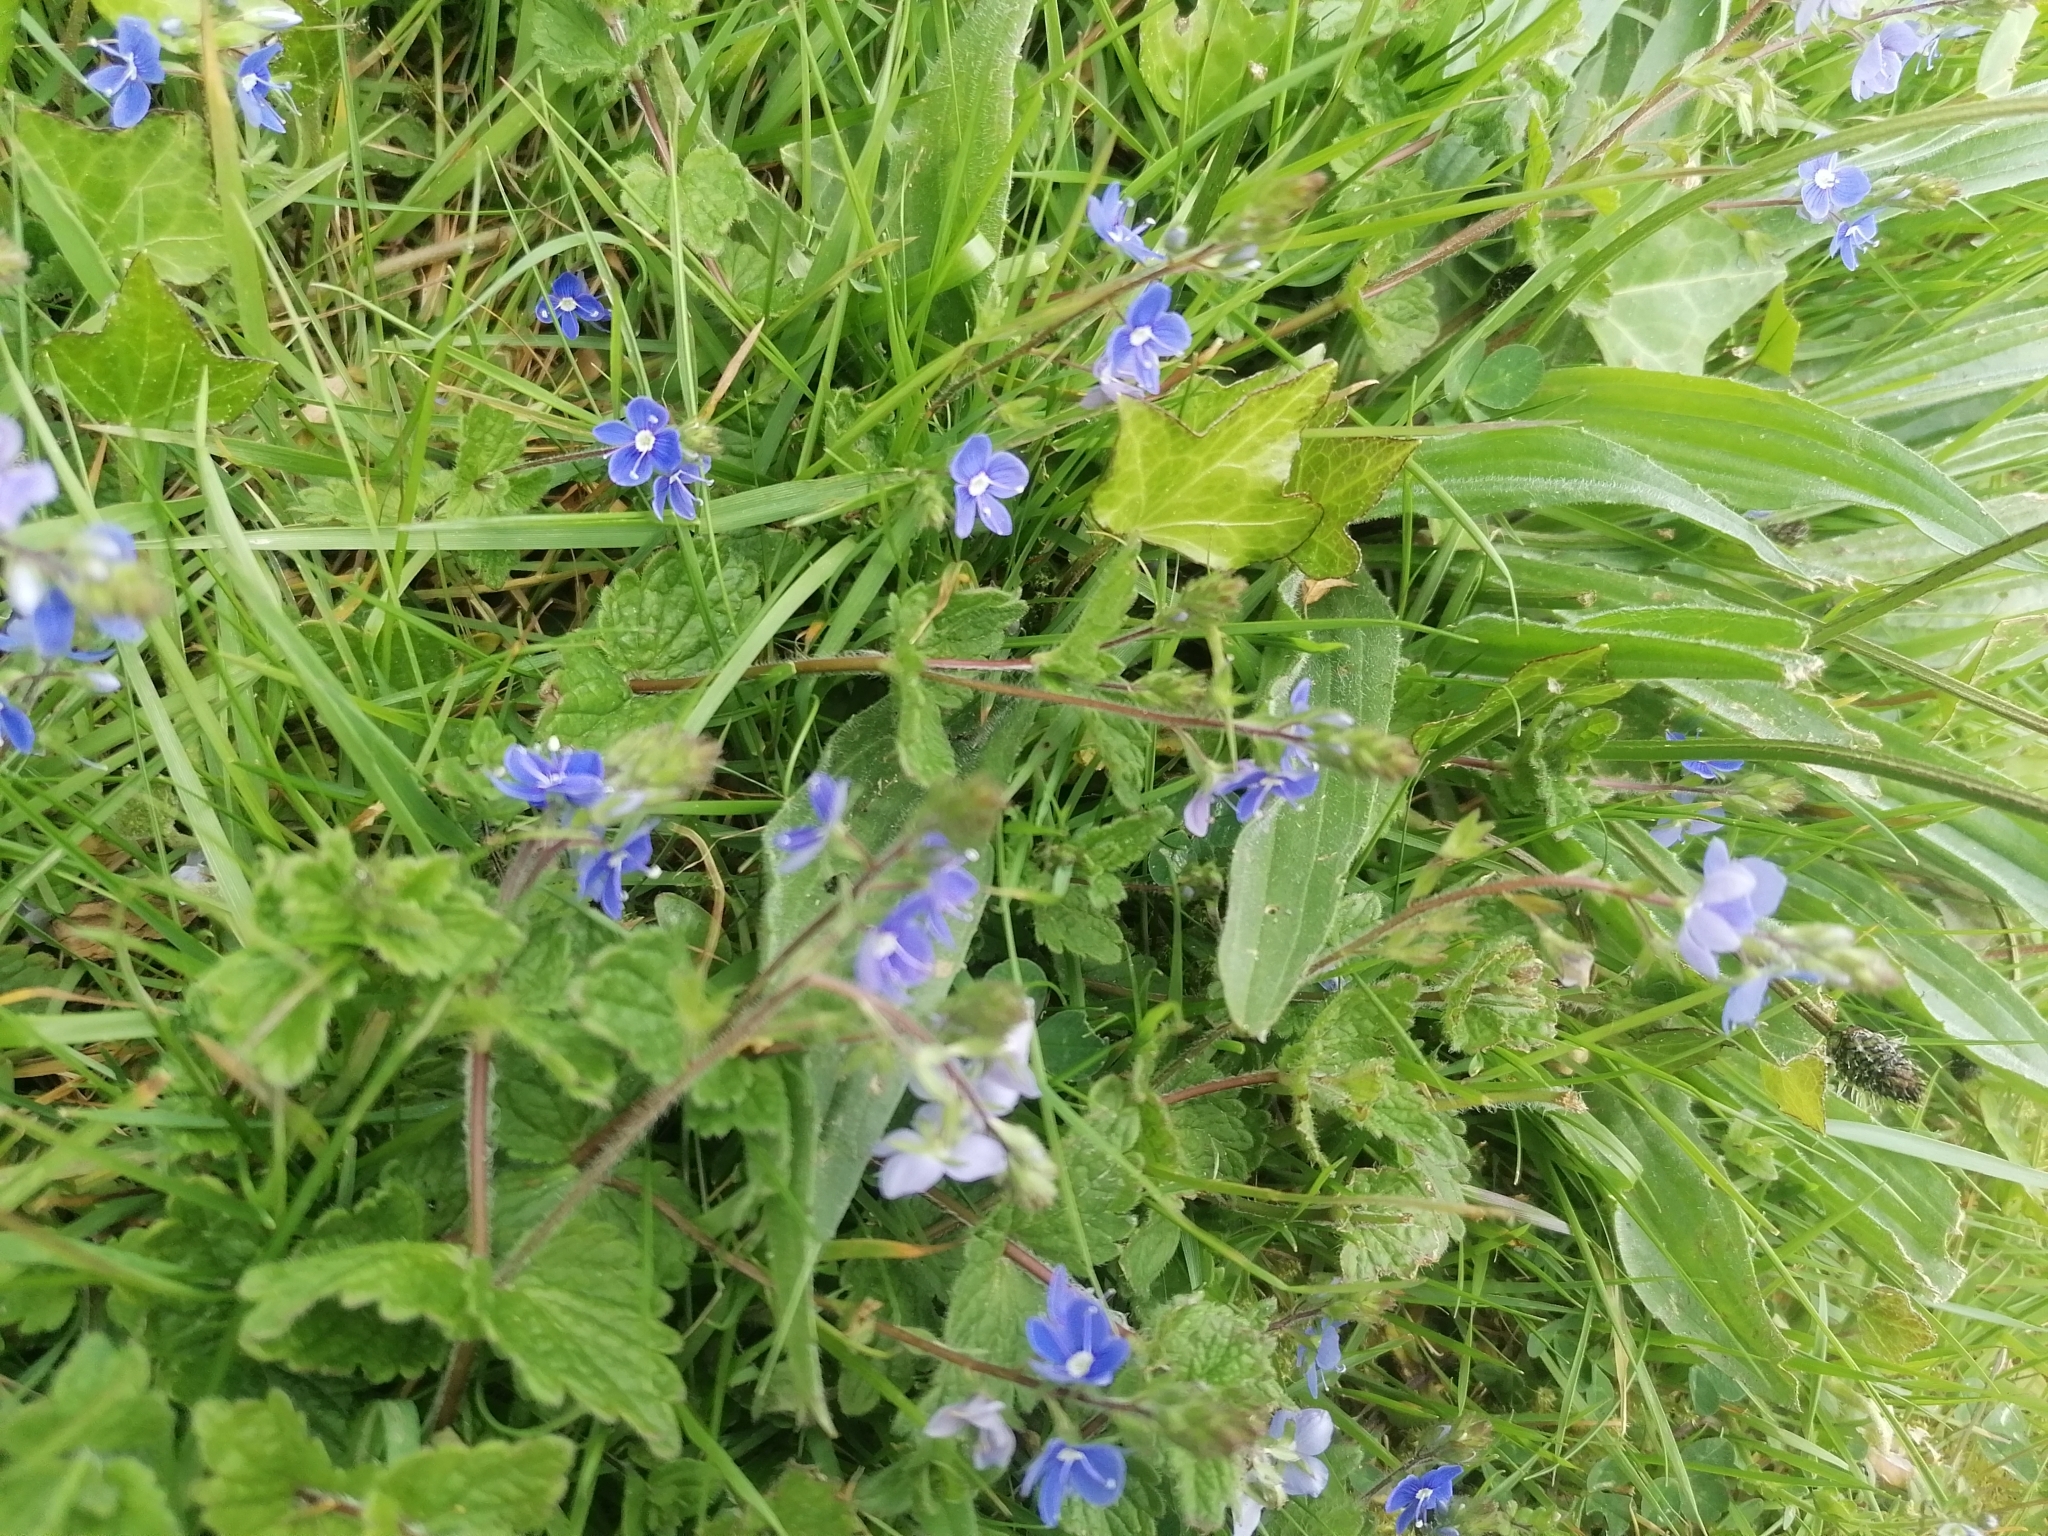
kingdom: Plantae
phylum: Tracheophyta
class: Magnoliopsida
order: Lamiales
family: Plantaginaceae
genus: Veronica
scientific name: Veronica chamaedrys
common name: Germander speedwell
